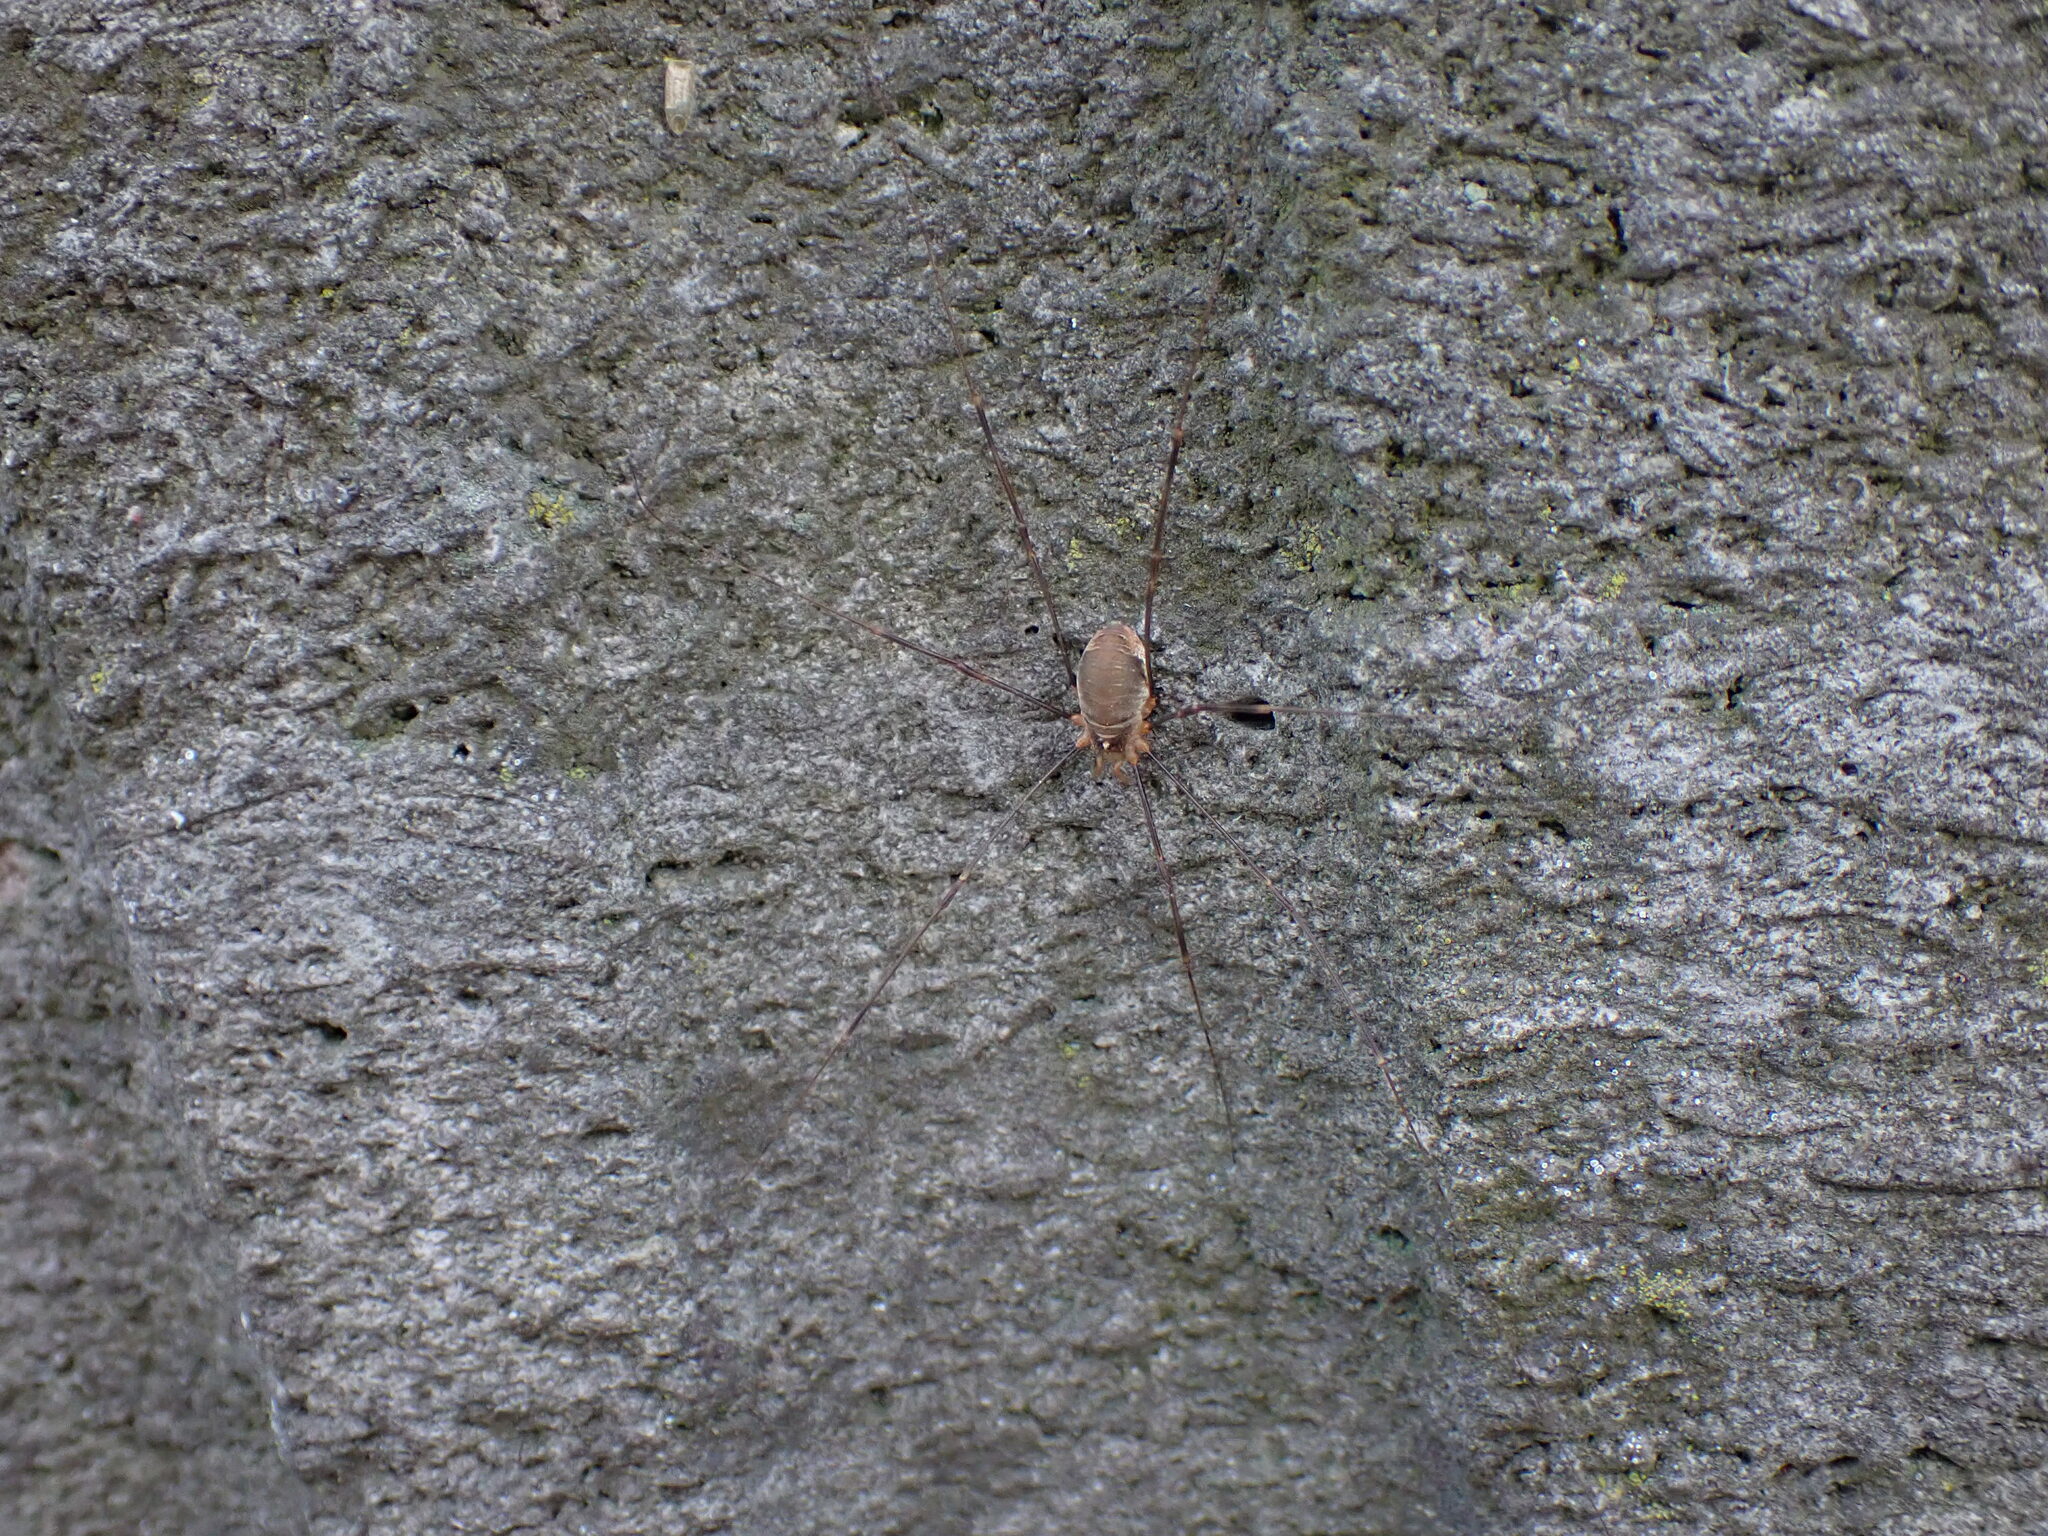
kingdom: Animalia
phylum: Arthropoda
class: Arachnida
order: Opiliones
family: Phalangiidae
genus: Opilio
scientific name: Opilio canestrinii
